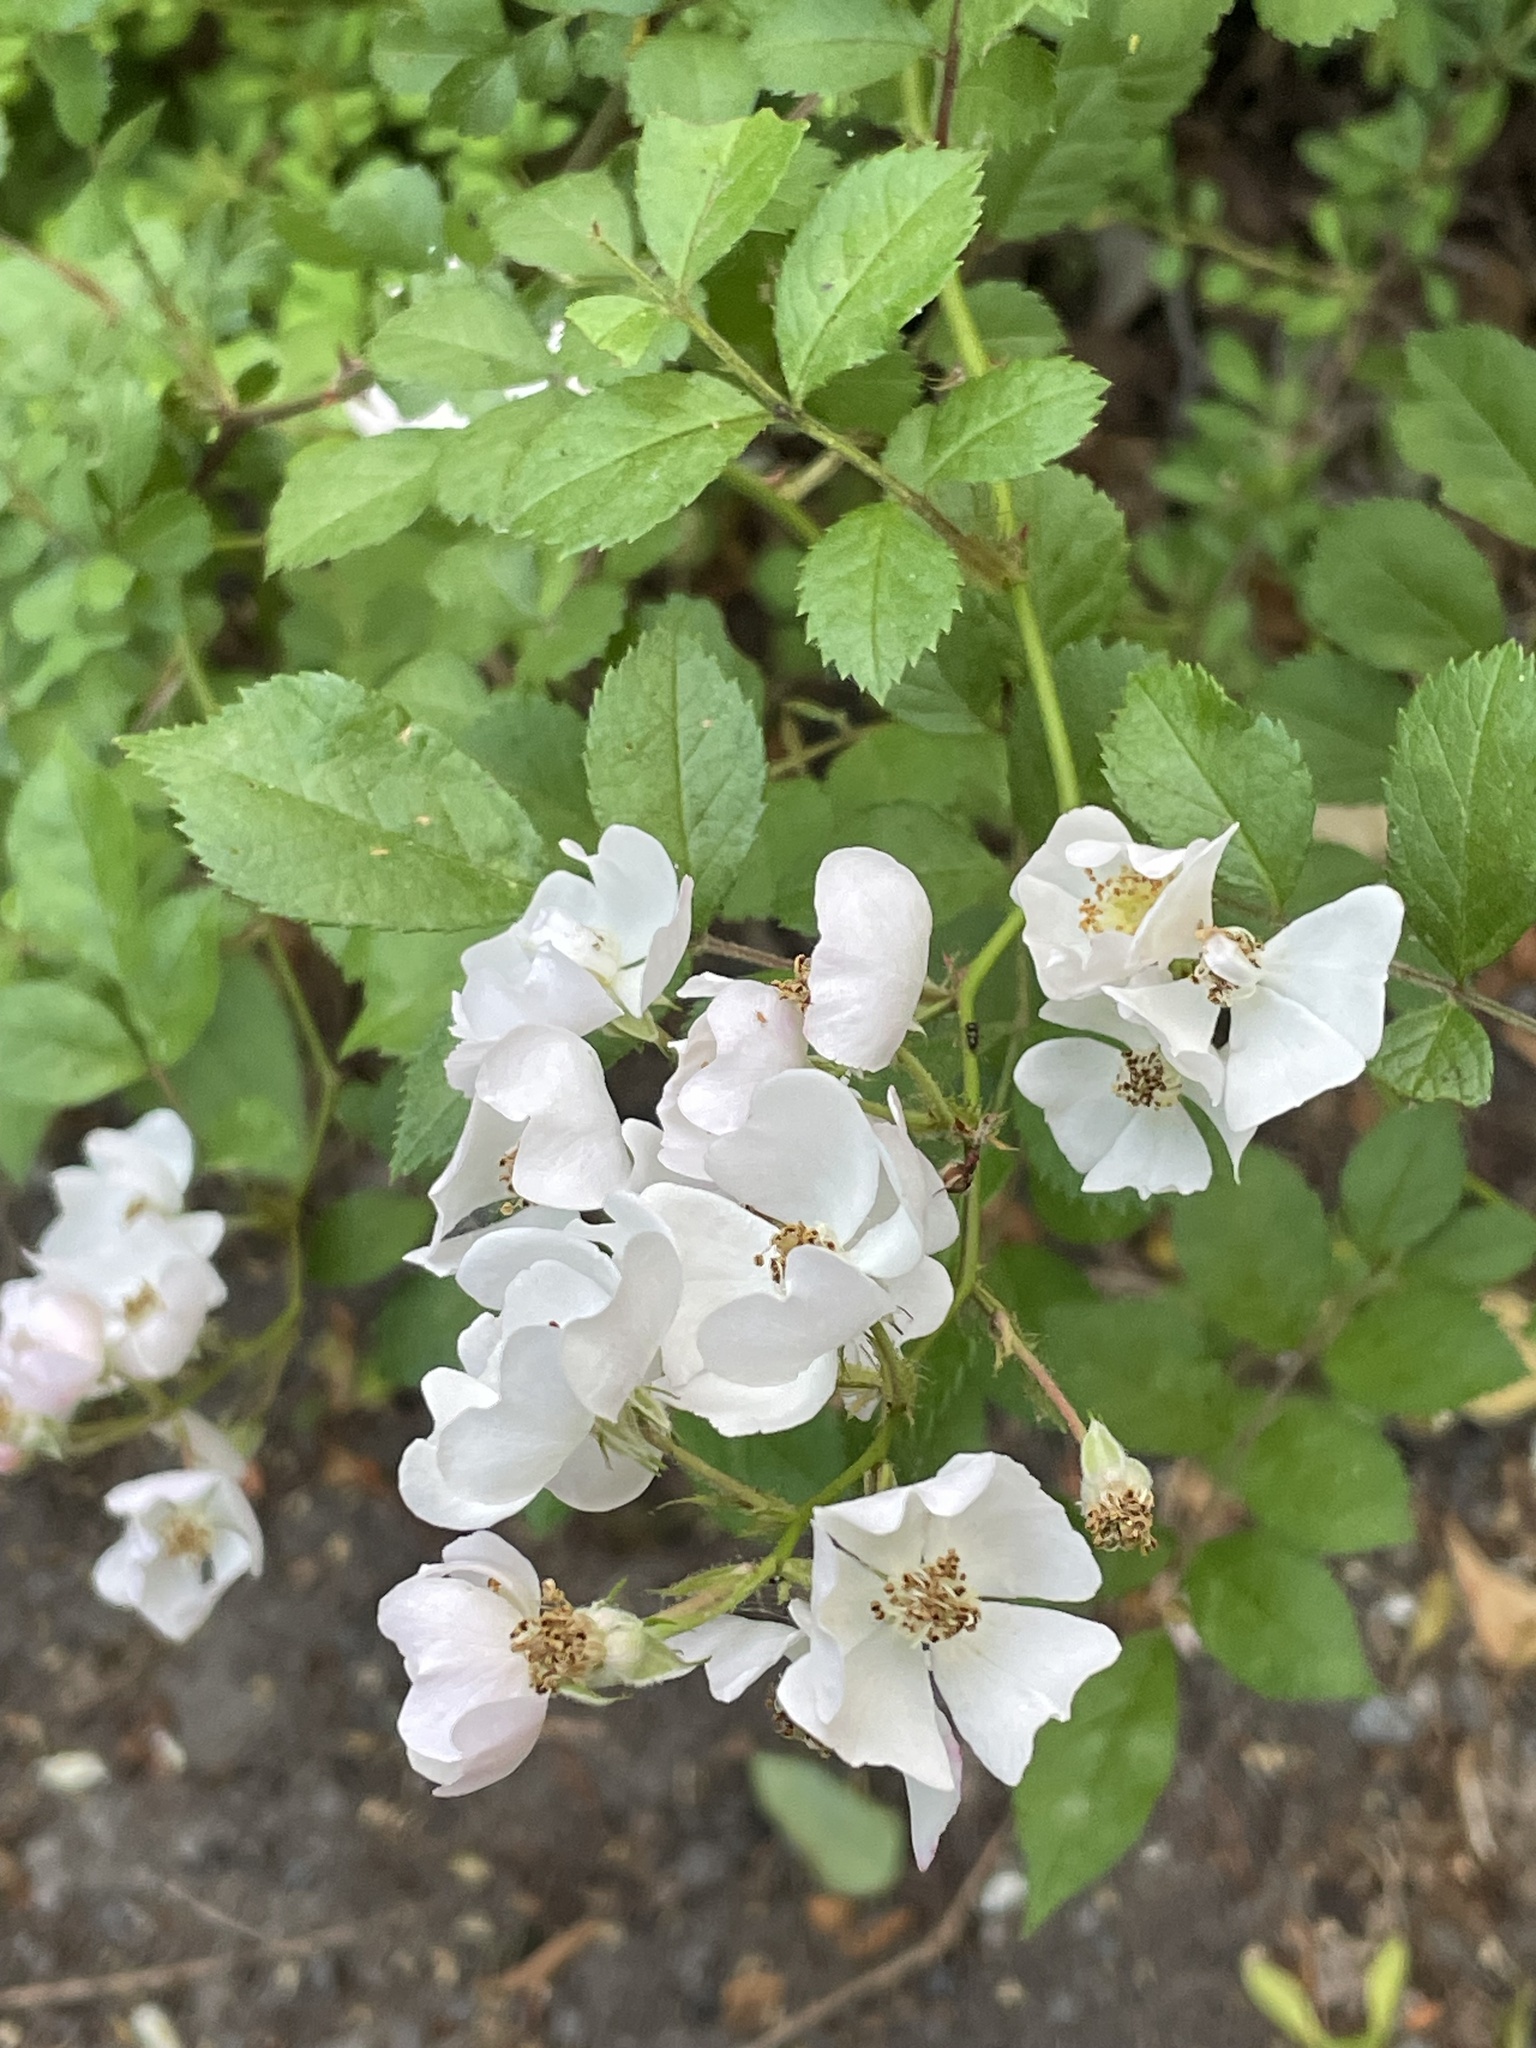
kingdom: Plantae
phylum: Tracheophyta
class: Magnoliopsida
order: Rosales
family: Rosaceae
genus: Rosa
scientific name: Rosa multiflora
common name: Multiflora rose
